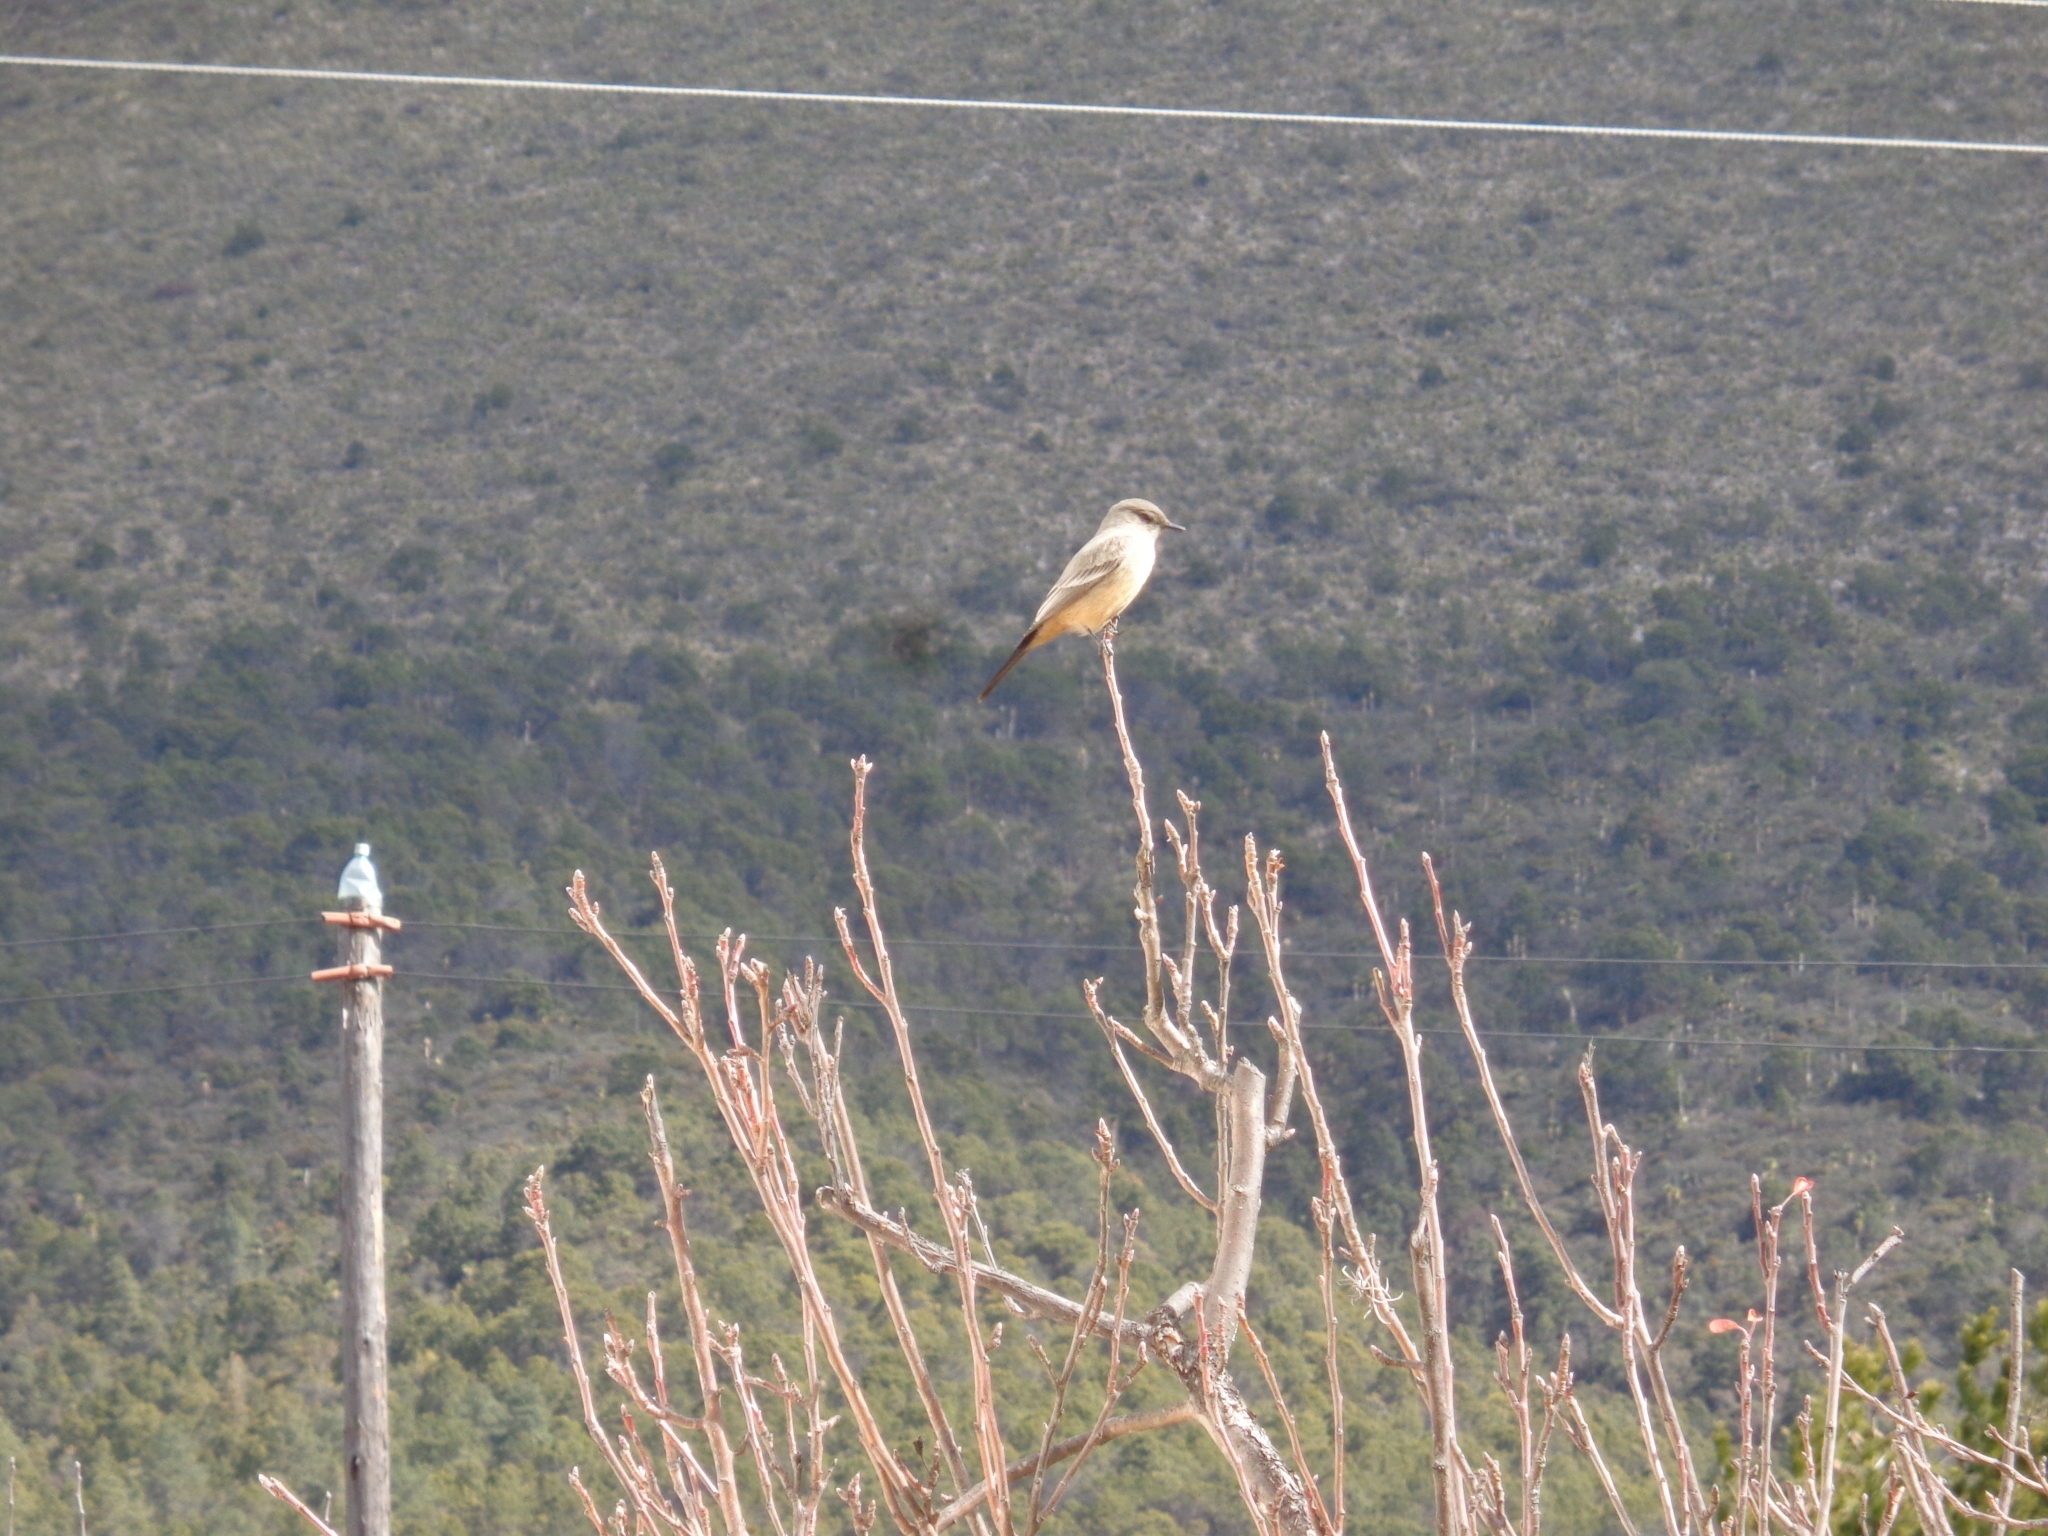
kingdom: Animalia
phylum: Chordata
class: Aves
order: Passeriformes
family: Tyrannidae
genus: Sayornis
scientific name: Sayornis saya
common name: Say's phoebe
